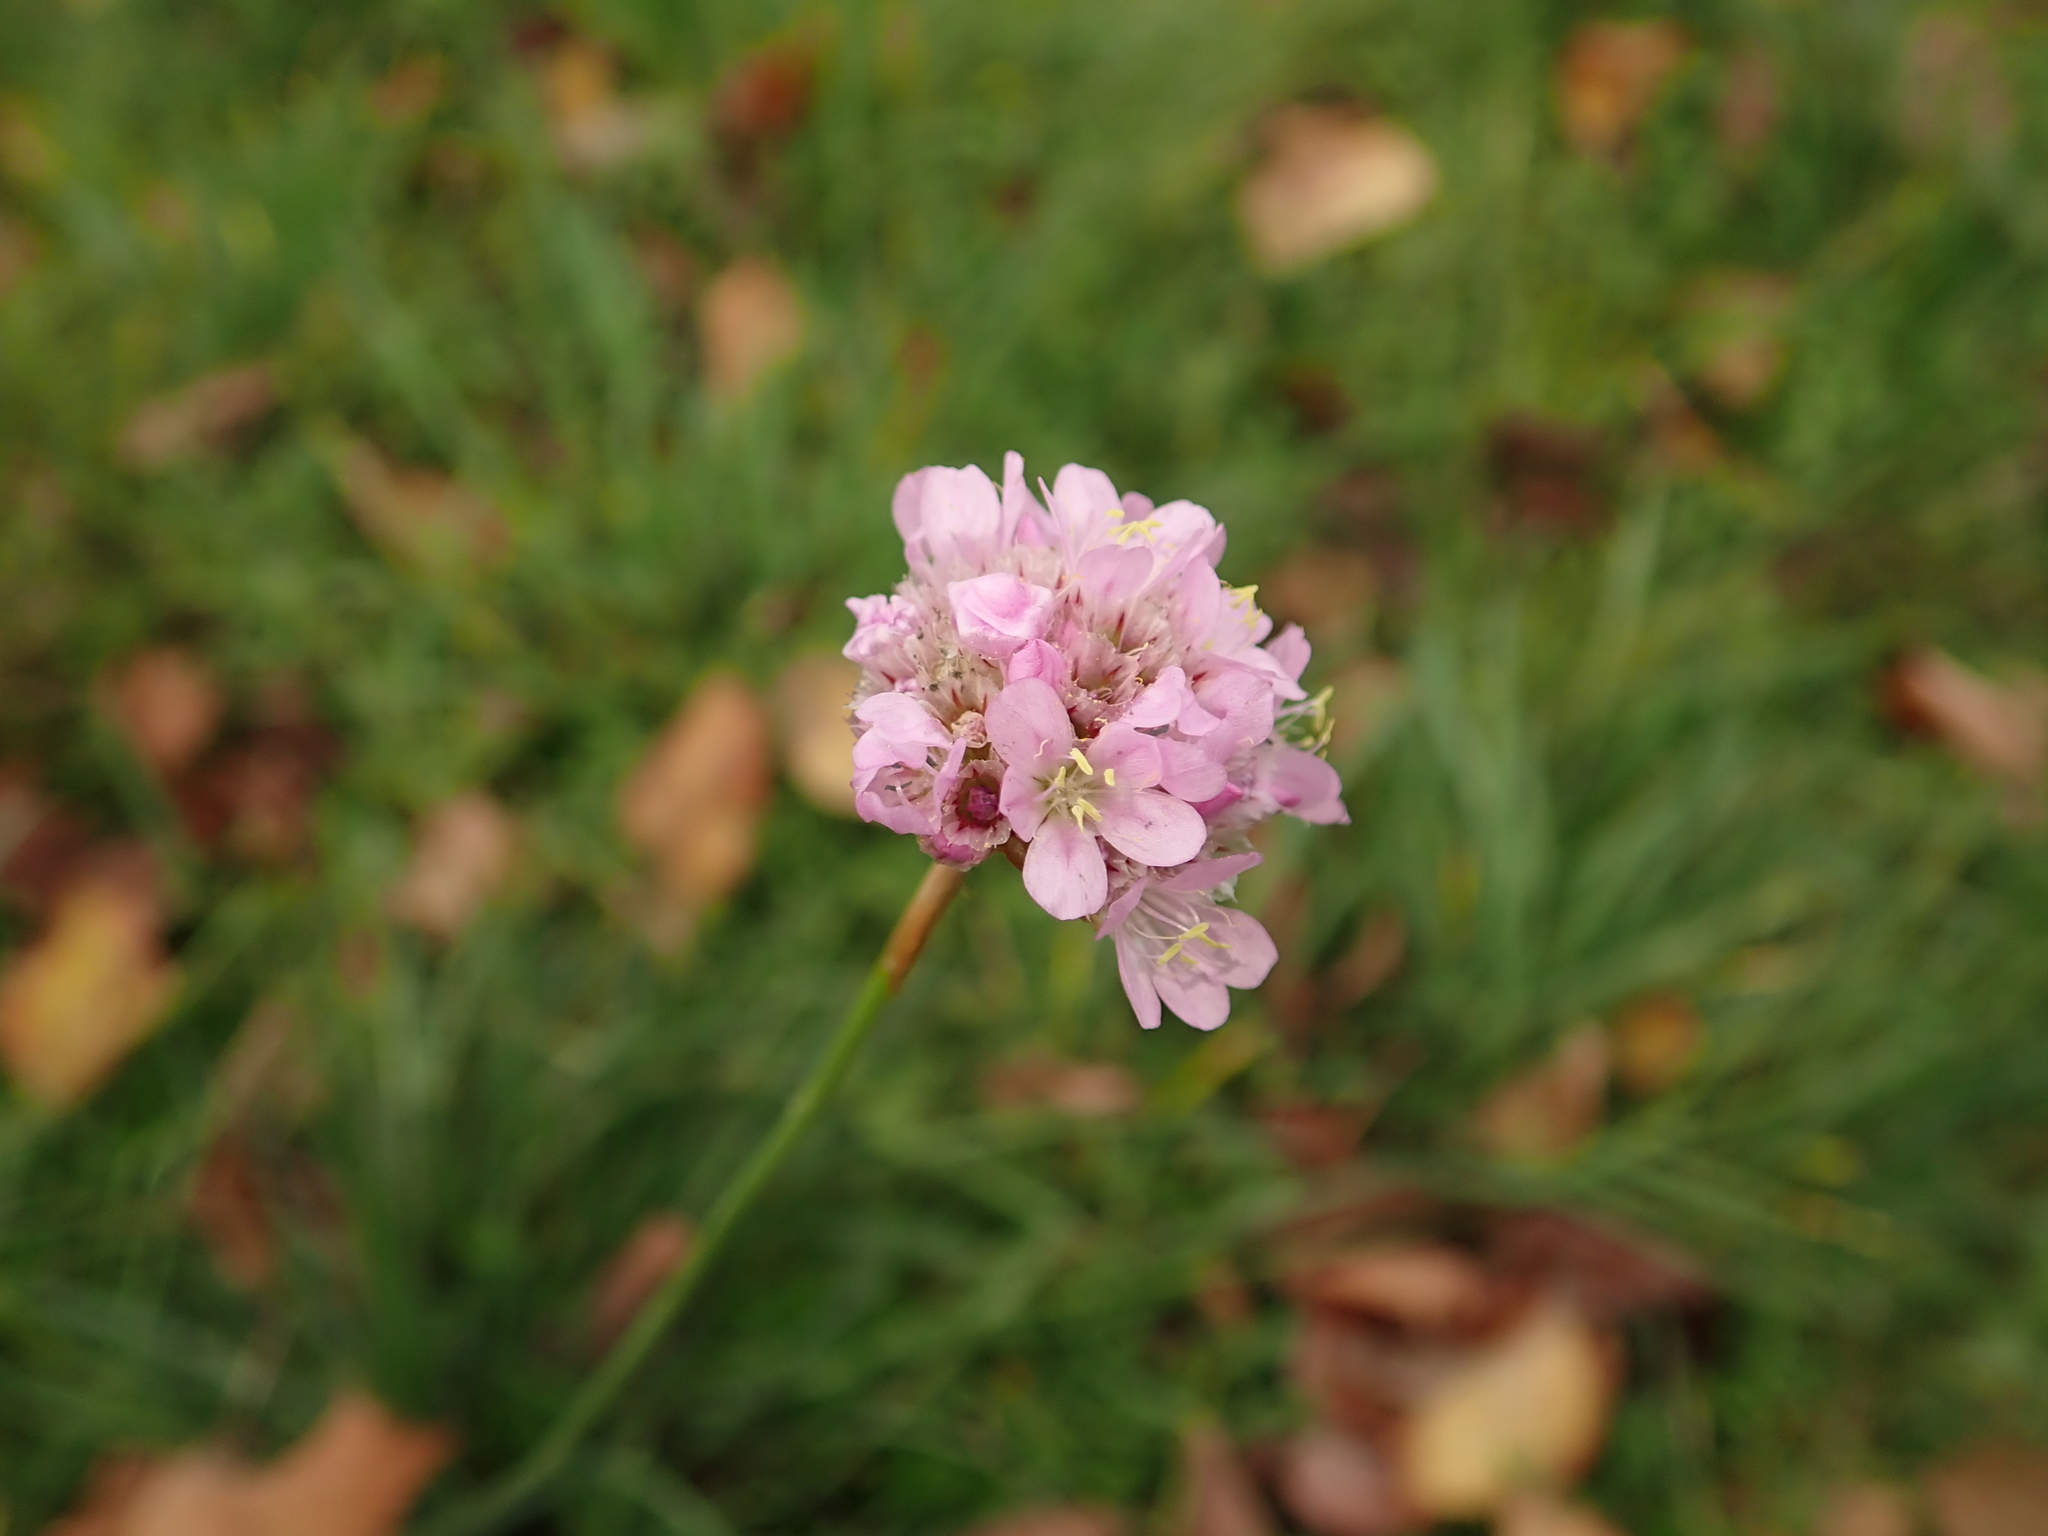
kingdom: Plantae
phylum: Tracheophyta
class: Magnoliopsida
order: Caryophyllales
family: Plumbaginaceae
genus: Armeria
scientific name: Armeria maritima
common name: Thrift
